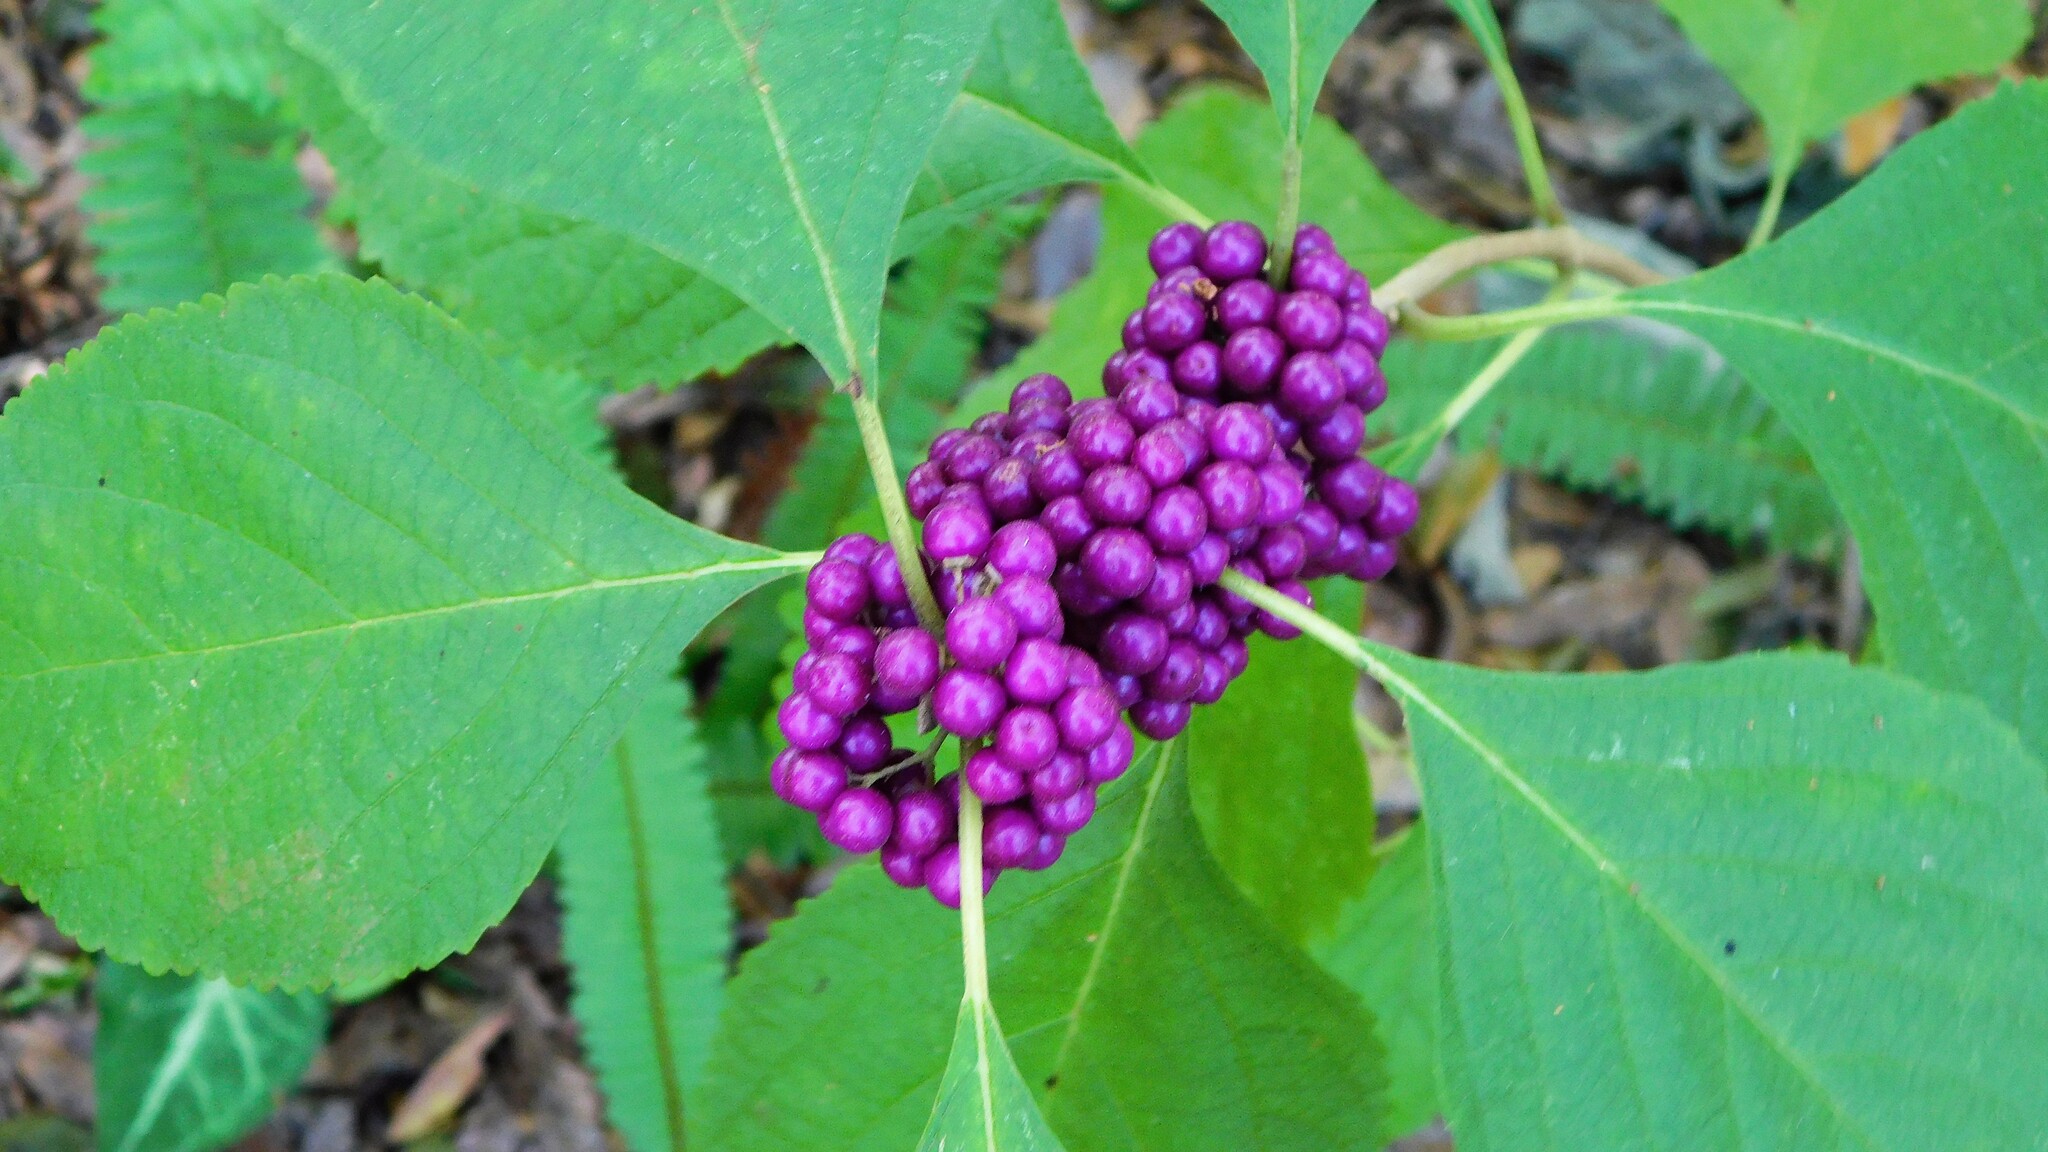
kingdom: Plantae
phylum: Tracheophyta
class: Magnoliopsida
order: Lamiales
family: Lamiaceae
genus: Callicarpa
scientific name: Callicarpa americana
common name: American beautyberry
